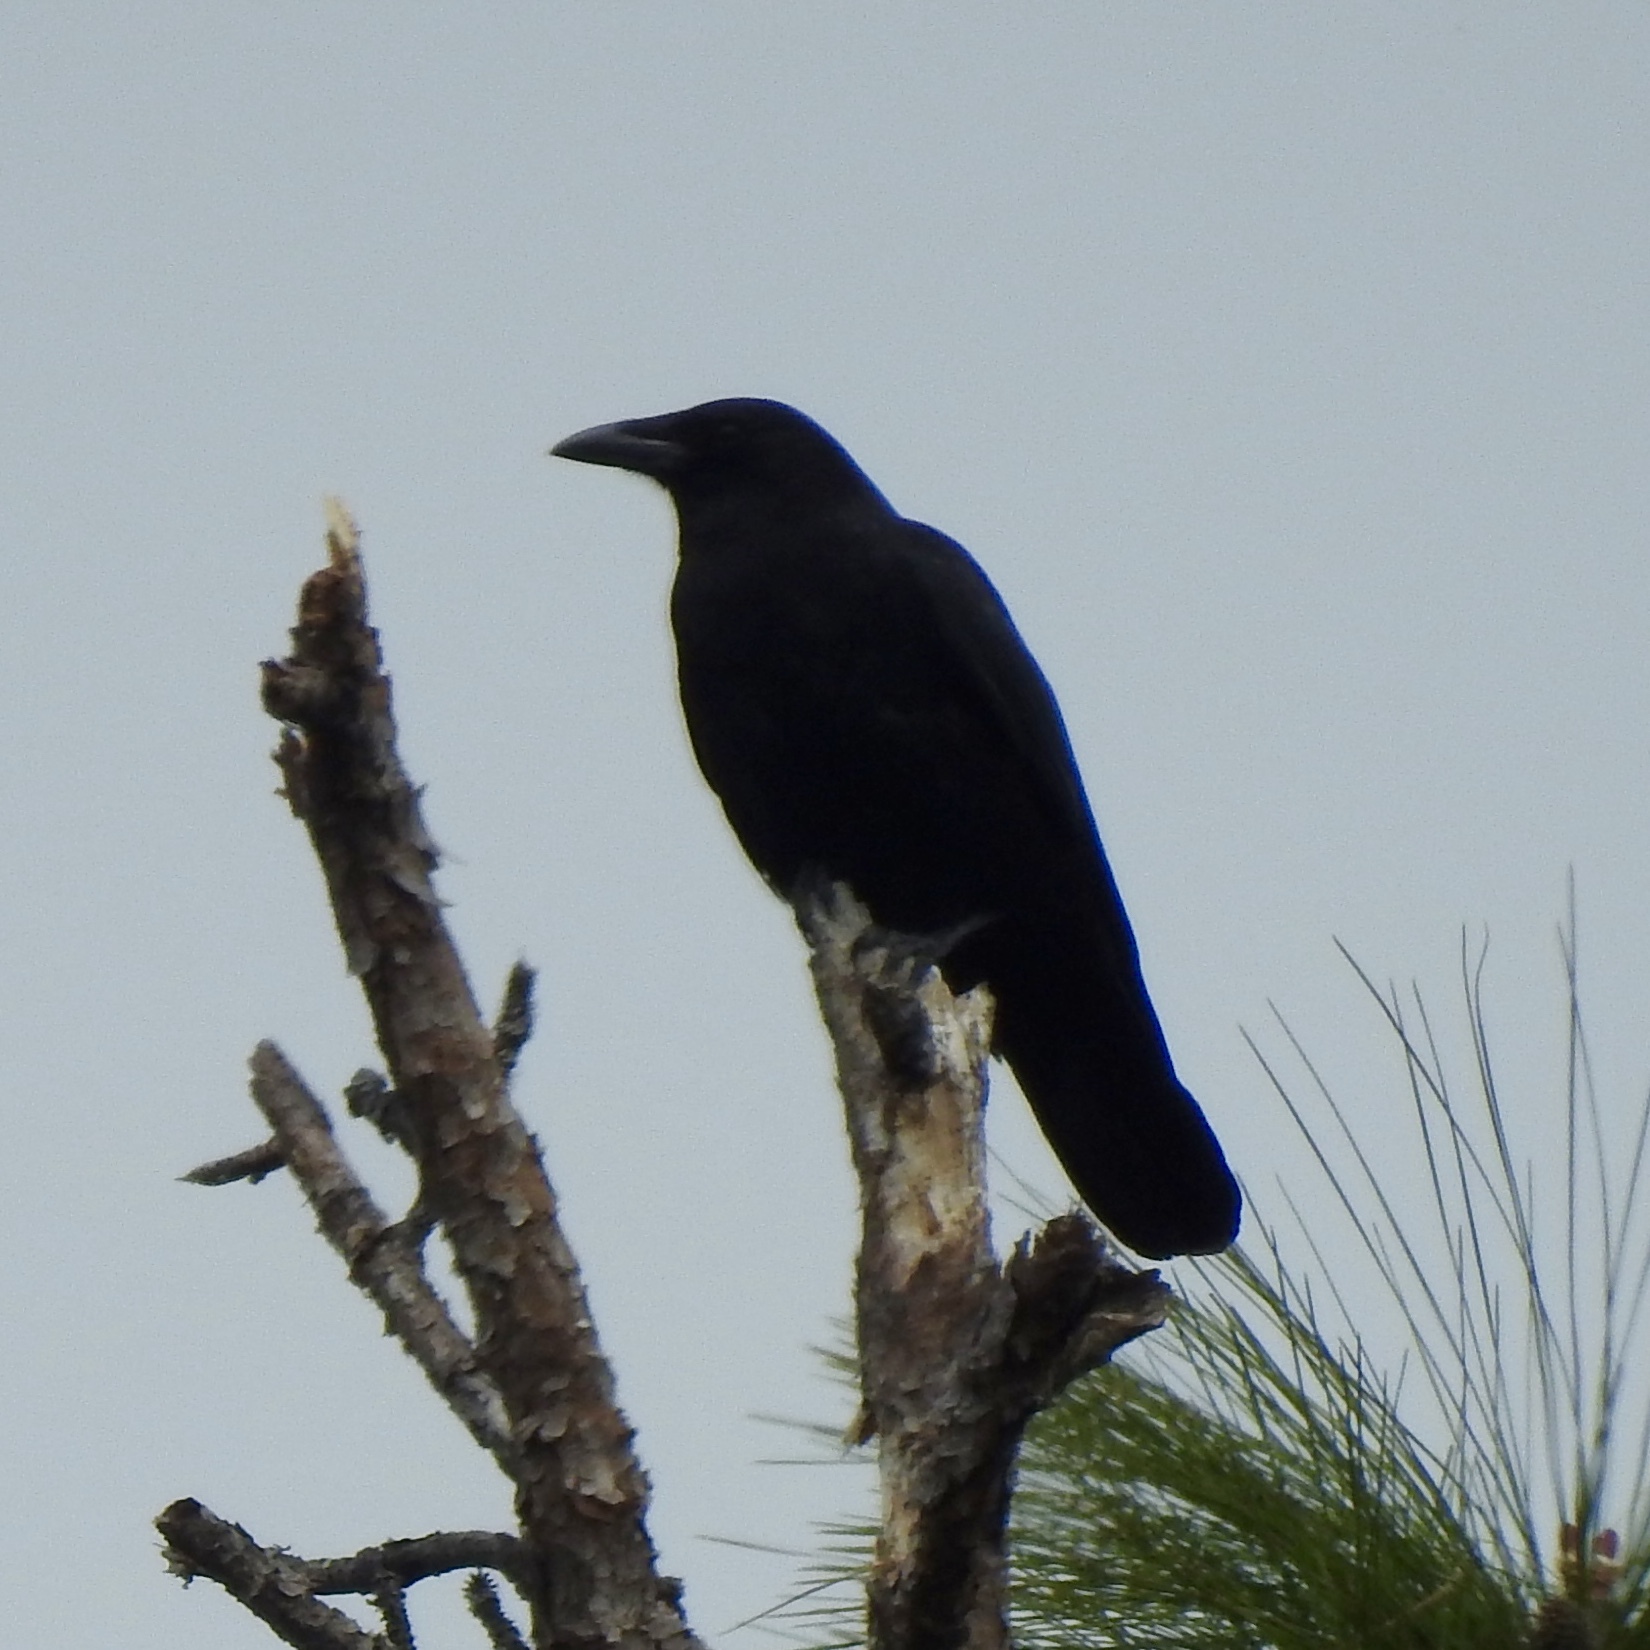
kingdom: Animalia
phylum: Chordata
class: Aves
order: Passeriformes
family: Corvidae
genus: Corvus
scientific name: Corvus brachyrhynchos
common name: American crow
